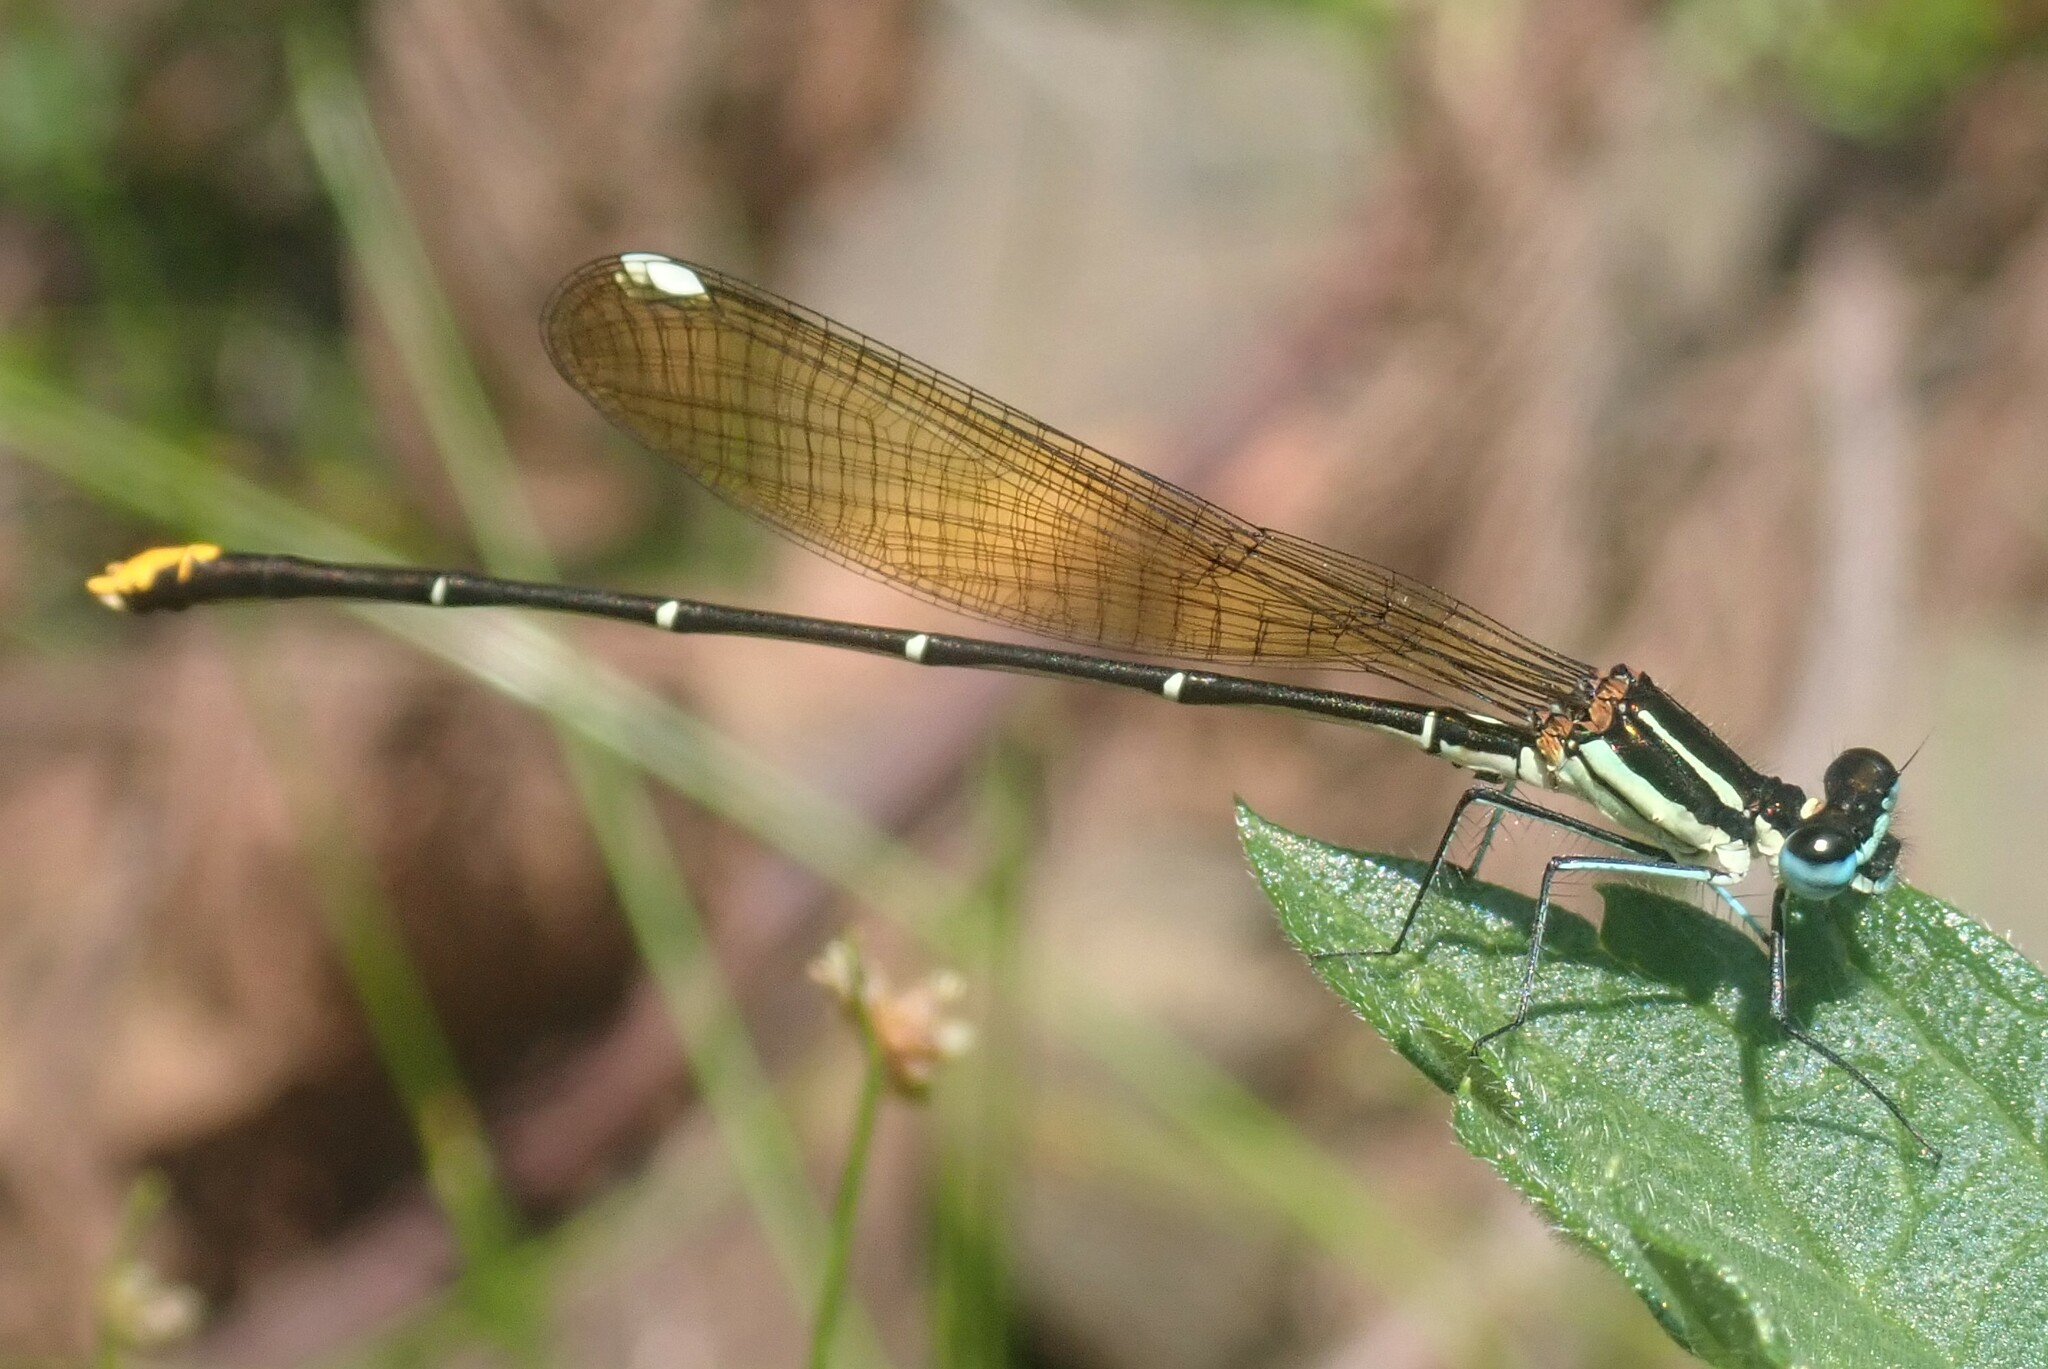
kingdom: Animalia
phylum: Arthropoda
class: Insecta
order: Odonata
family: Platycnemididae
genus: Allocnemis
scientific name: Allocnemis leucosticta
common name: Goldtail
